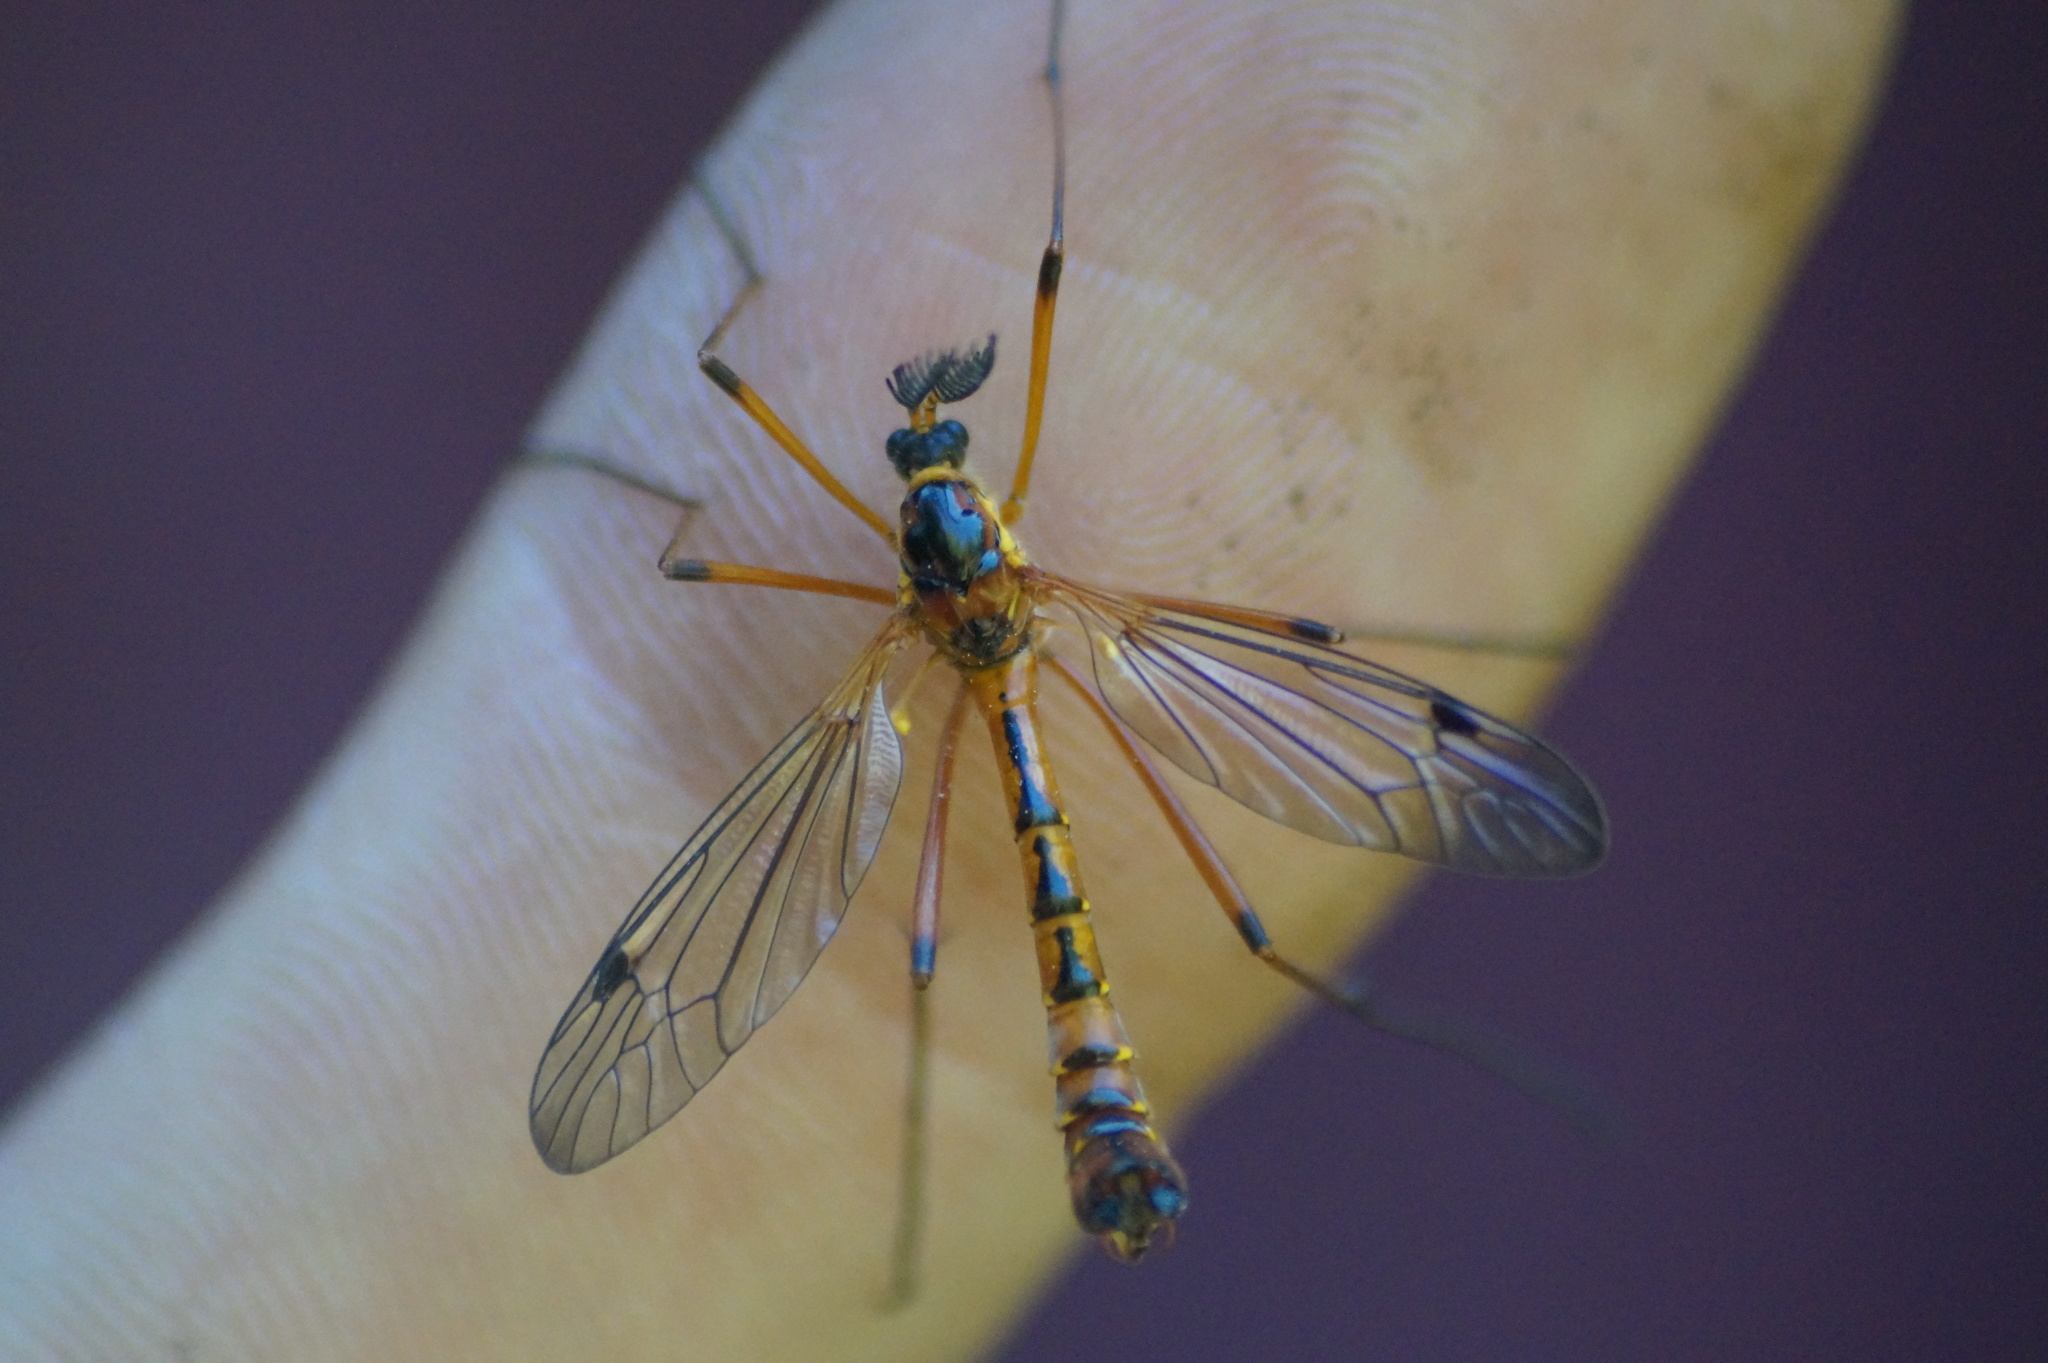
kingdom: Animalia
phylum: Arthropoda
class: Insecta
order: Diptera
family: Tipulidae
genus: Ctenophora
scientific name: Ctenophora pectinicornis
